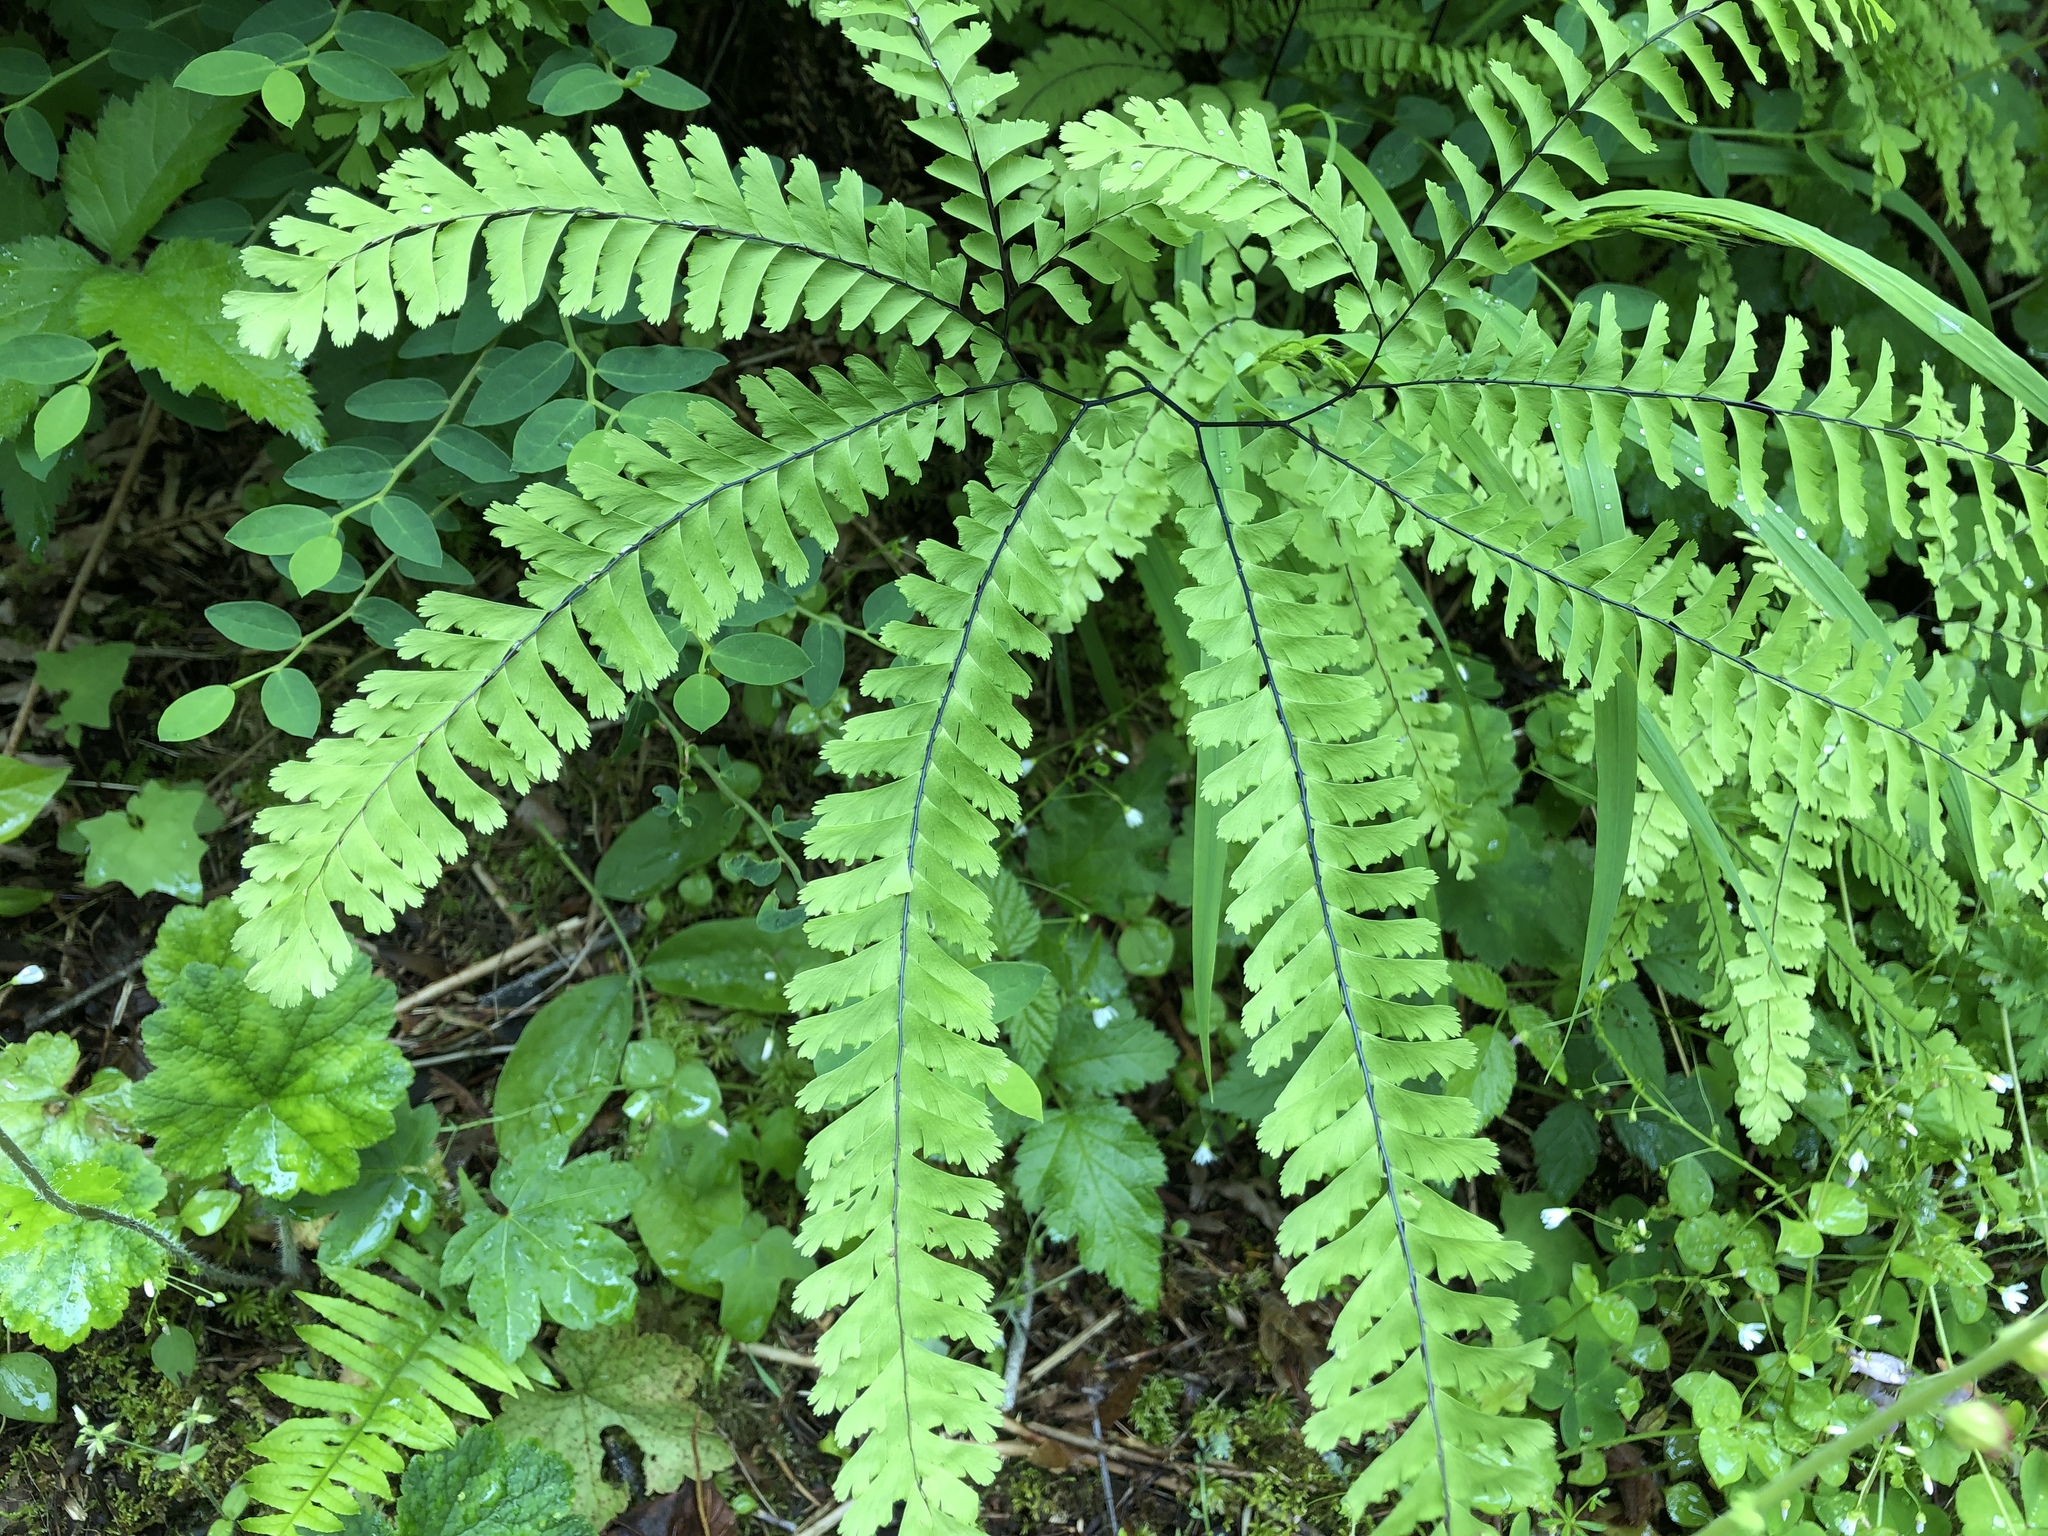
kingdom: Plantae
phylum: Tracheophyta
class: Polypodiopsida
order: Polypodiales
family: Pteridaceae
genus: Adiantum
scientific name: Adiantum aleuticum
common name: Aleutian maidenhair fern
